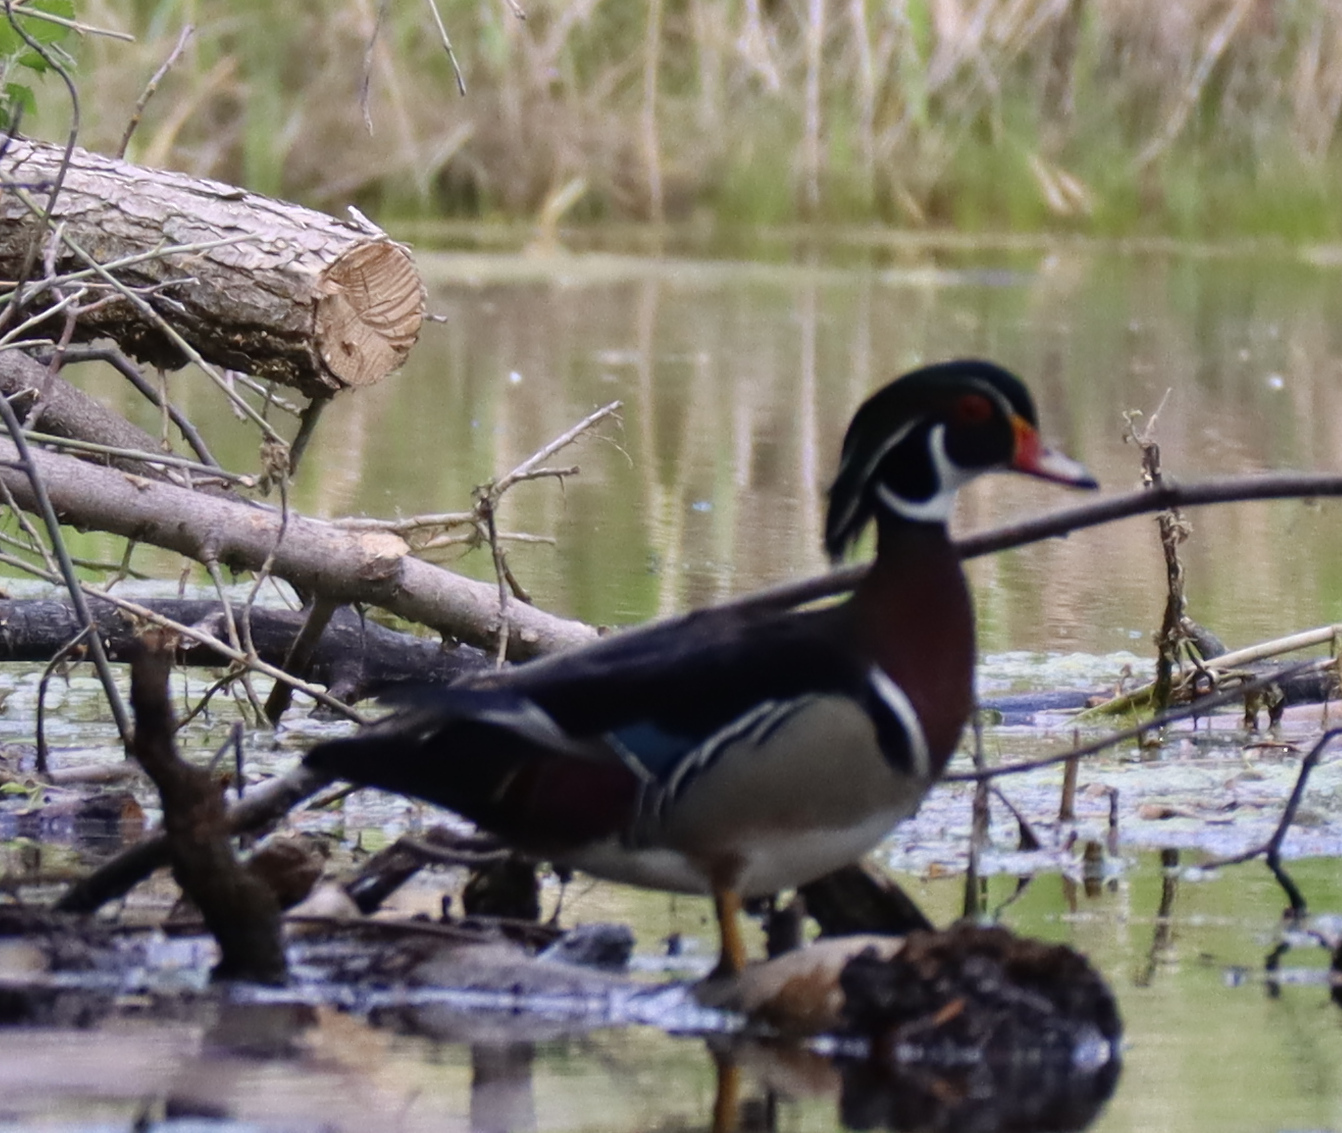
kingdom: Animalia
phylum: Chordata
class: Aves
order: Anseriformes
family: Anatidae
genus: Aix
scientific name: Aix sponsa
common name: Wood duck
